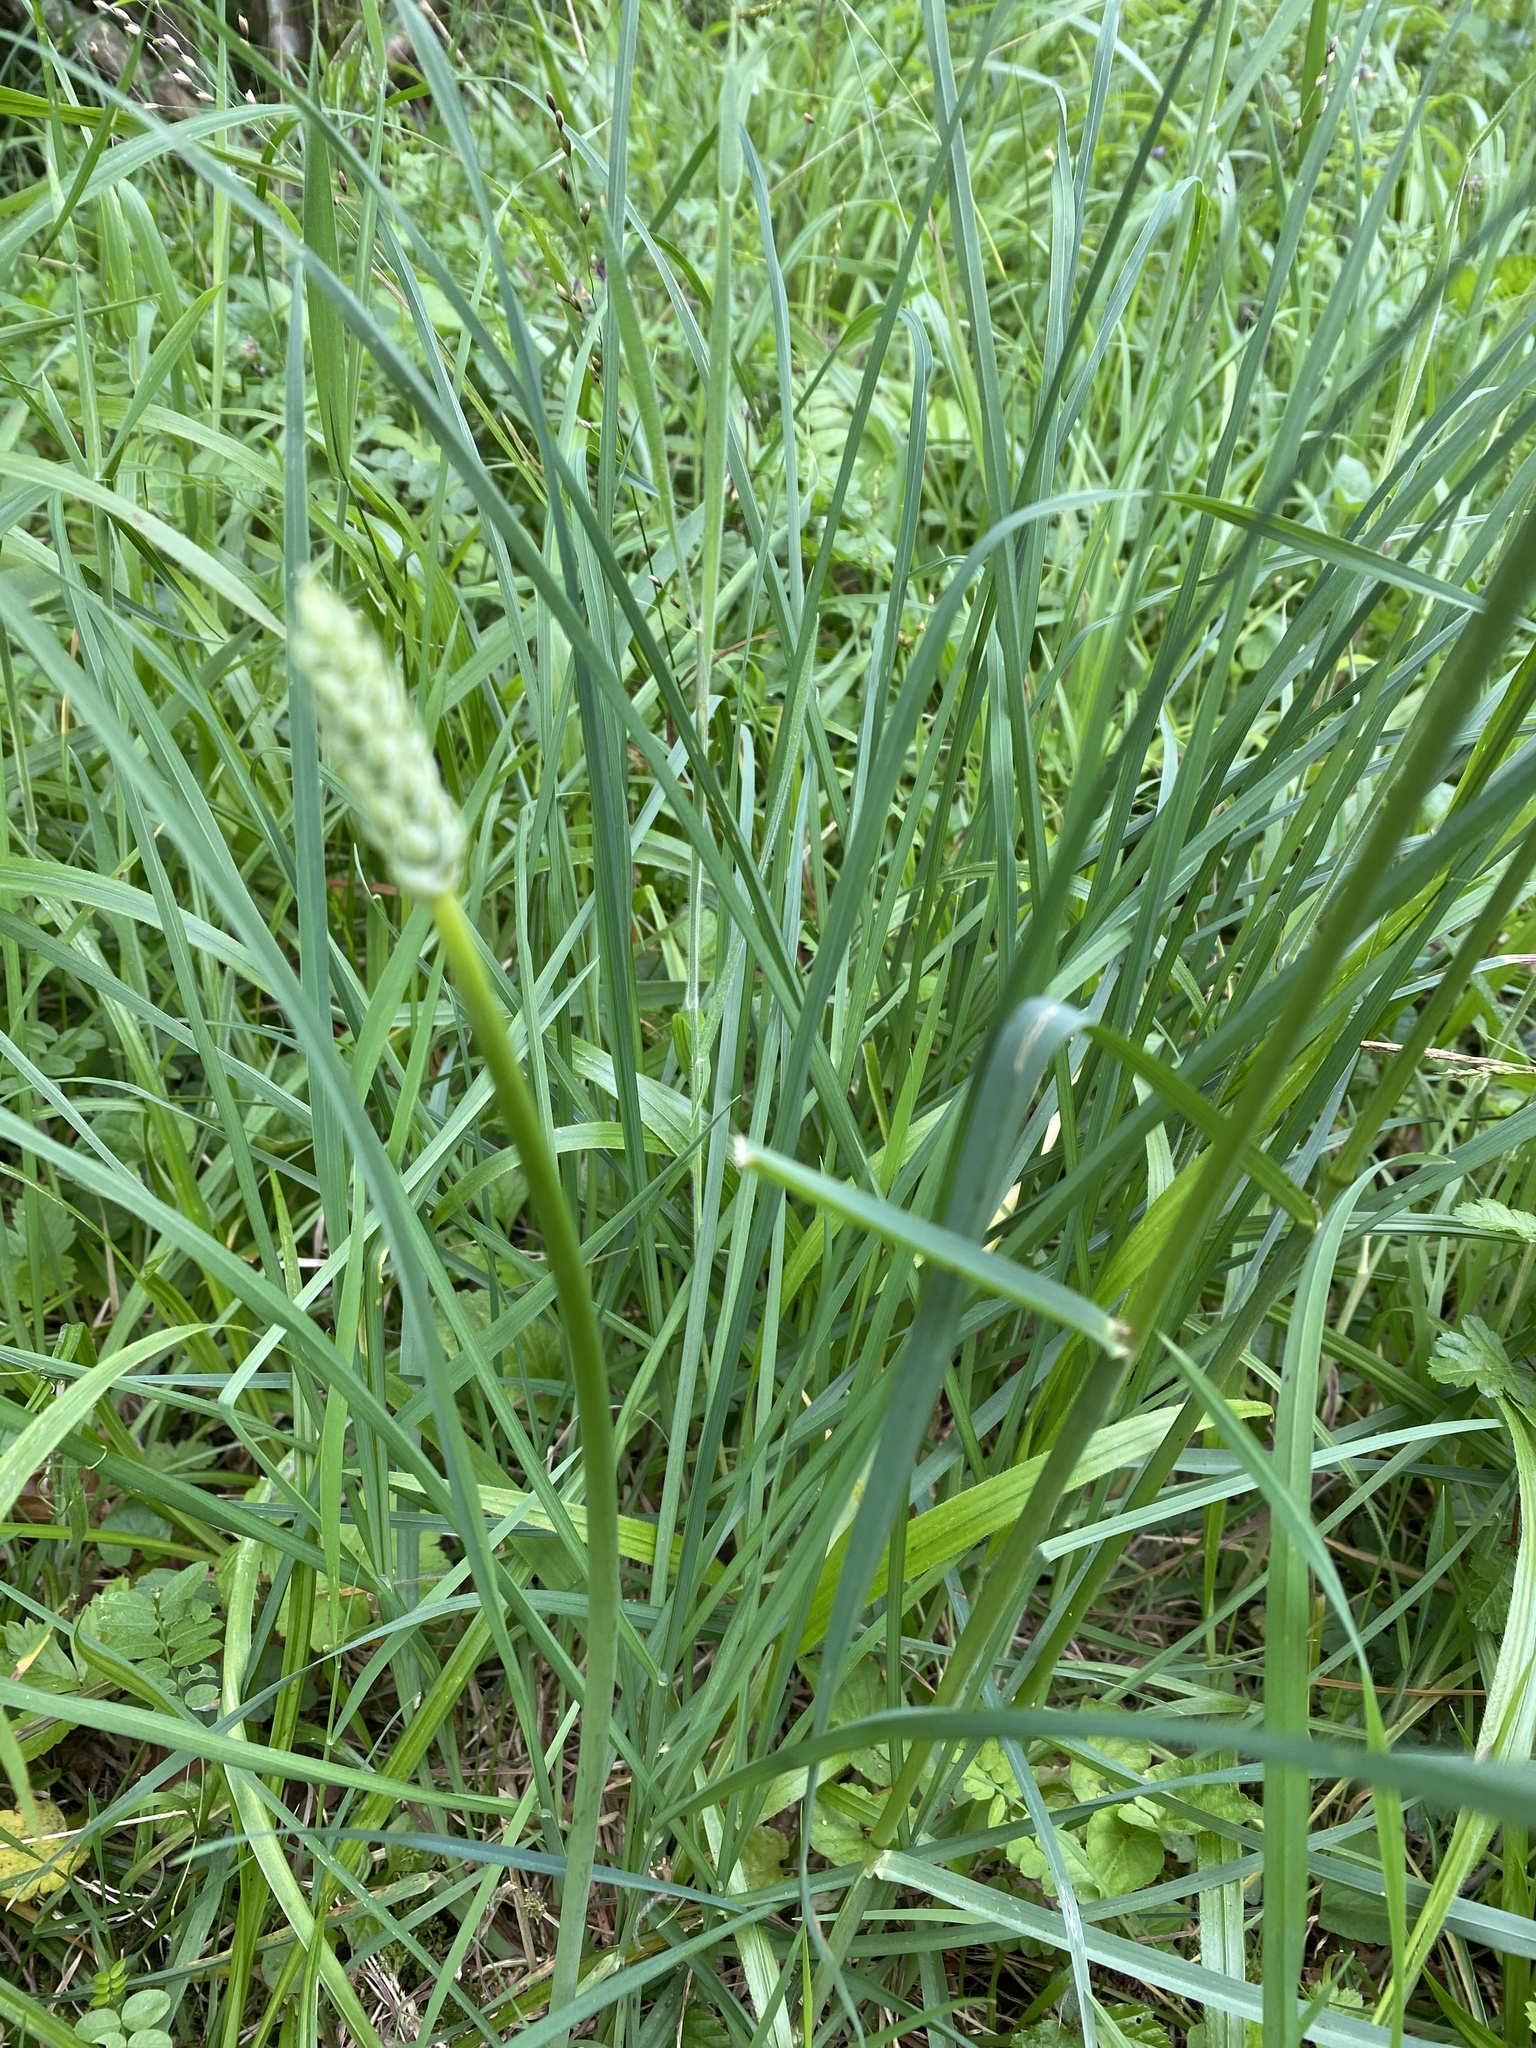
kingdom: Plantae
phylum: Tracheophyta
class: Liliopsida
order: Asparagales
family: Asparagaceae
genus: Ornithogalum
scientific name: Ornithogalum pyrenaicum
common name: Spiked star-of-bethlehem
